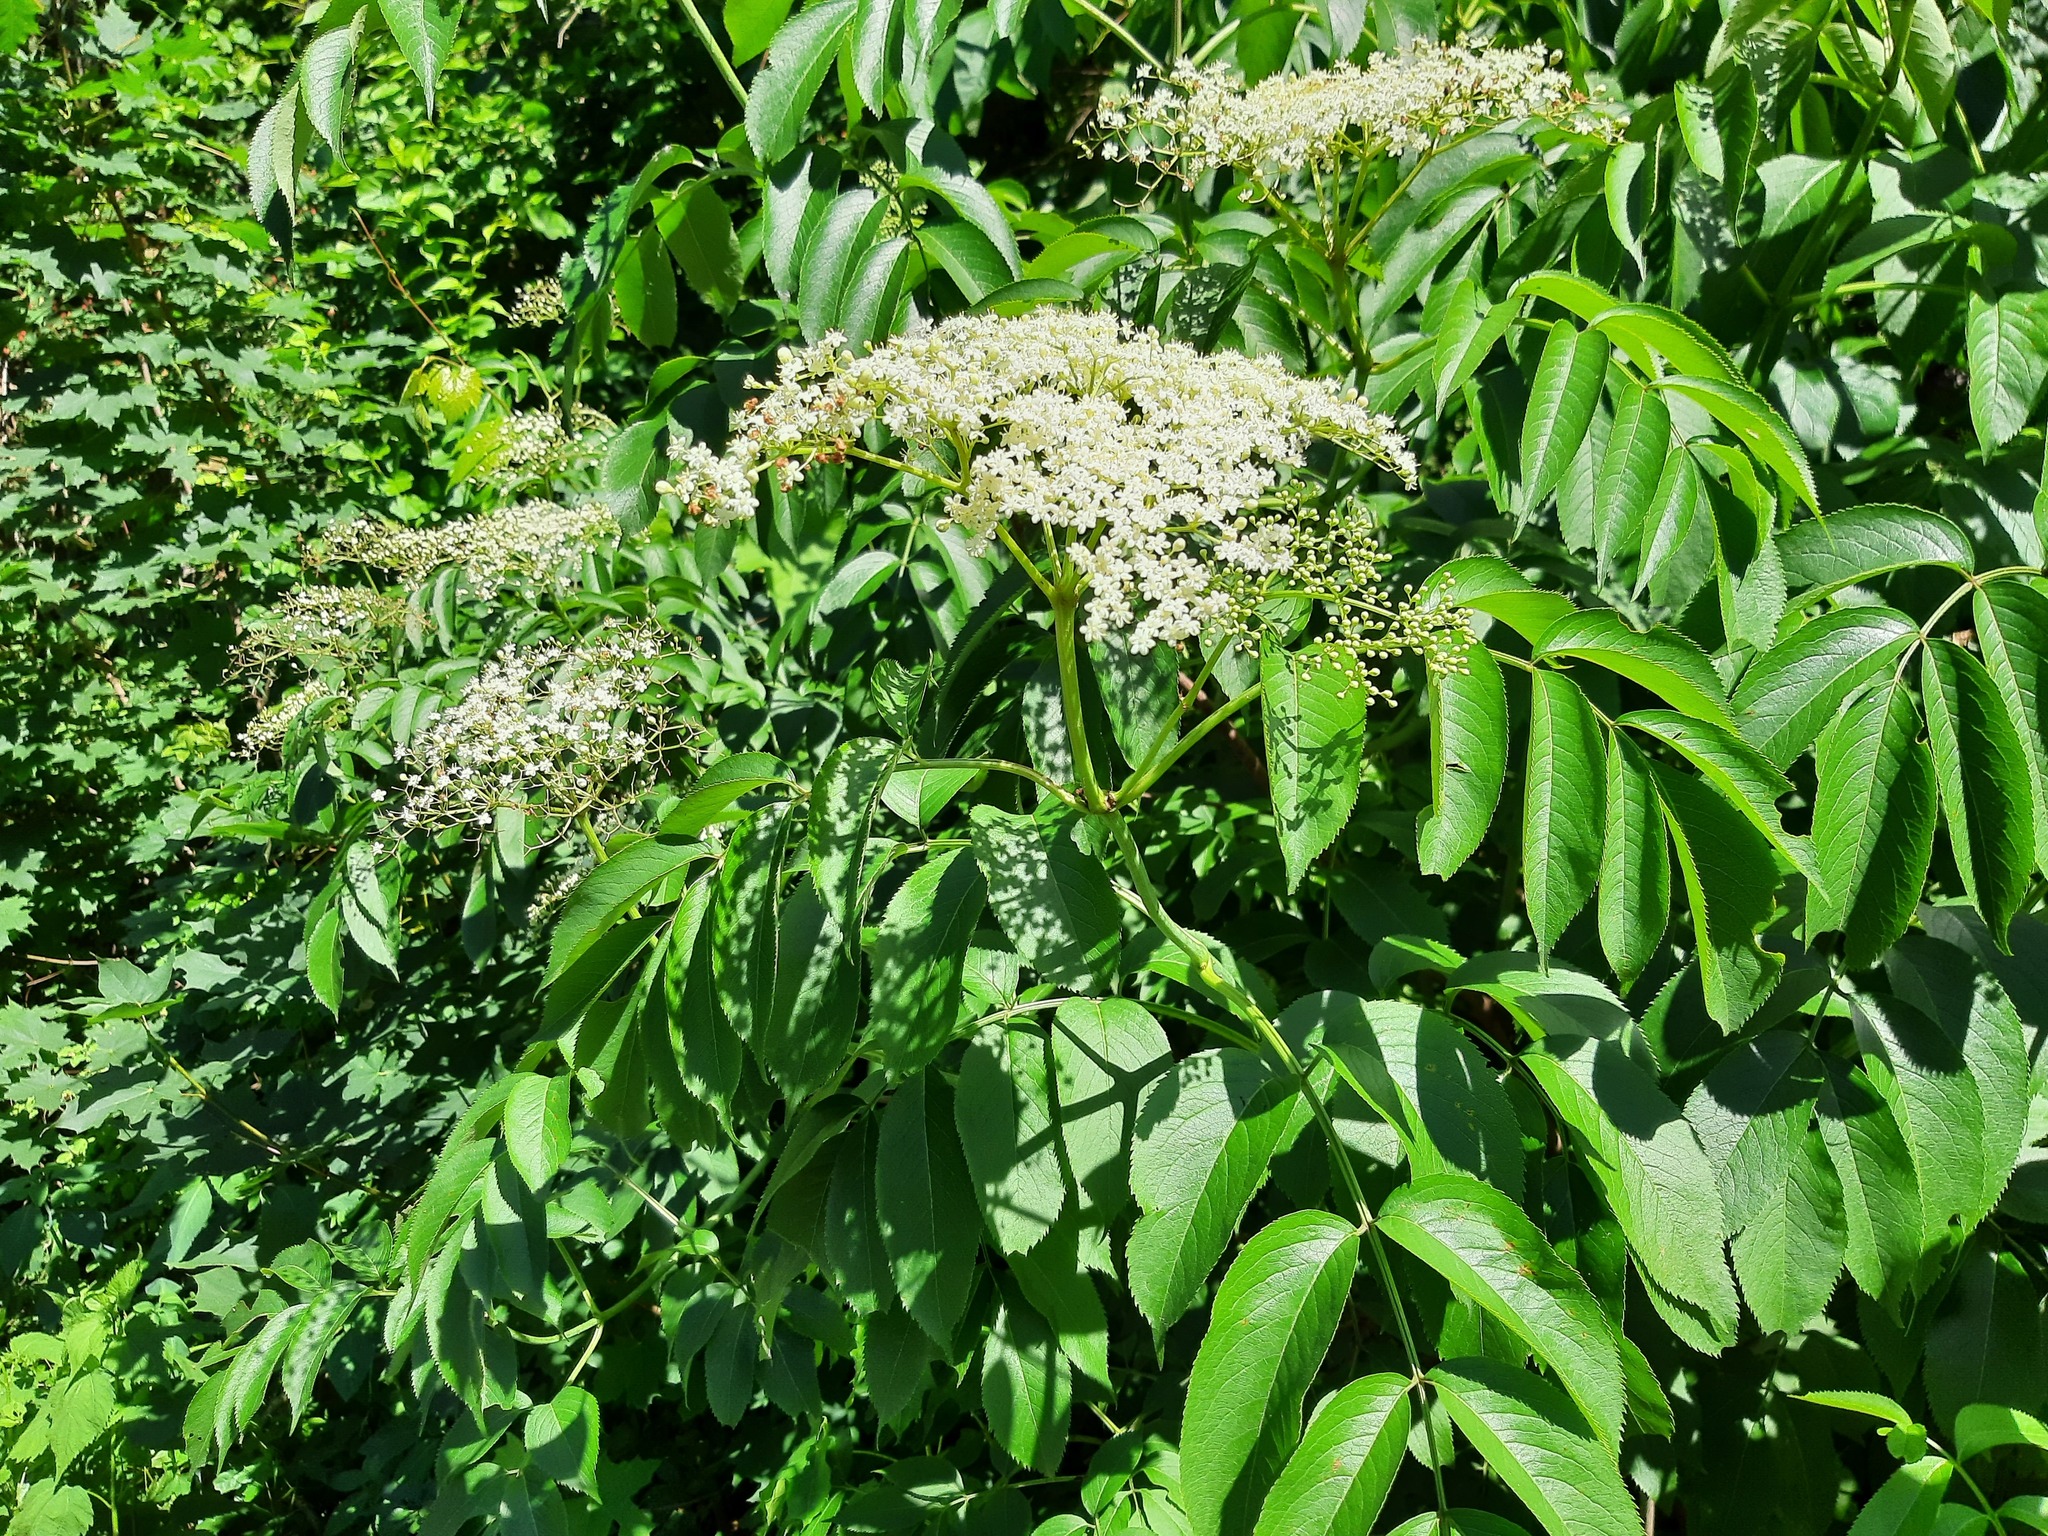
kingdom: Plantae
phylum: Tracheophyta
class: Magnoliopsida
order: Dipsacales
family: Viburnaceae
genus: Sambucus
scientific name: Sambucus canadensis
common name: American elder
